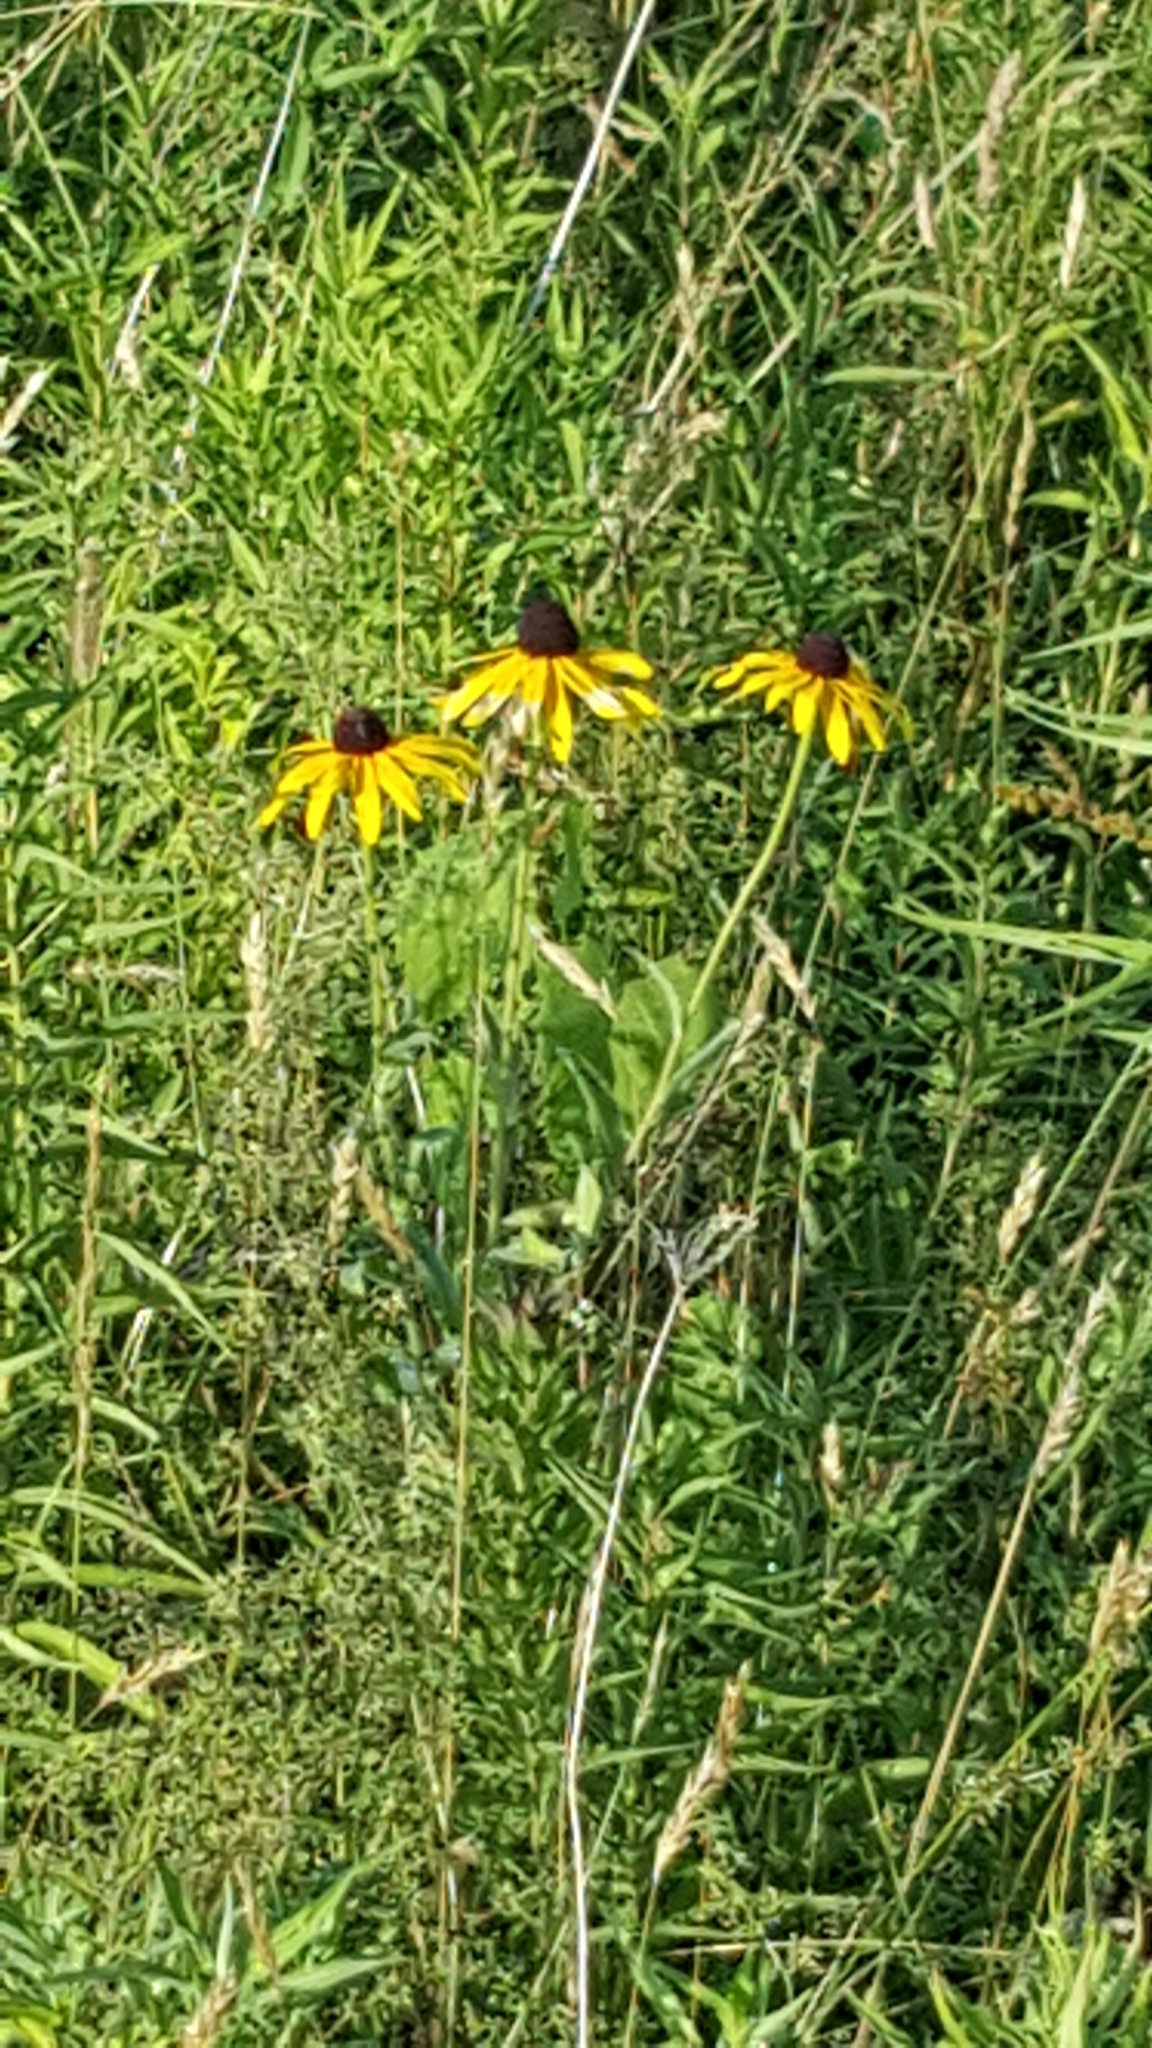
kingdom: Plantae
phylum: Tracheophyta
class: Magnoliopsida
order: Asterales
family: Asteraceae
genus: Rudbeckia
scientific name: Rudbeckia hirta
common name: Black-eyed-susan
